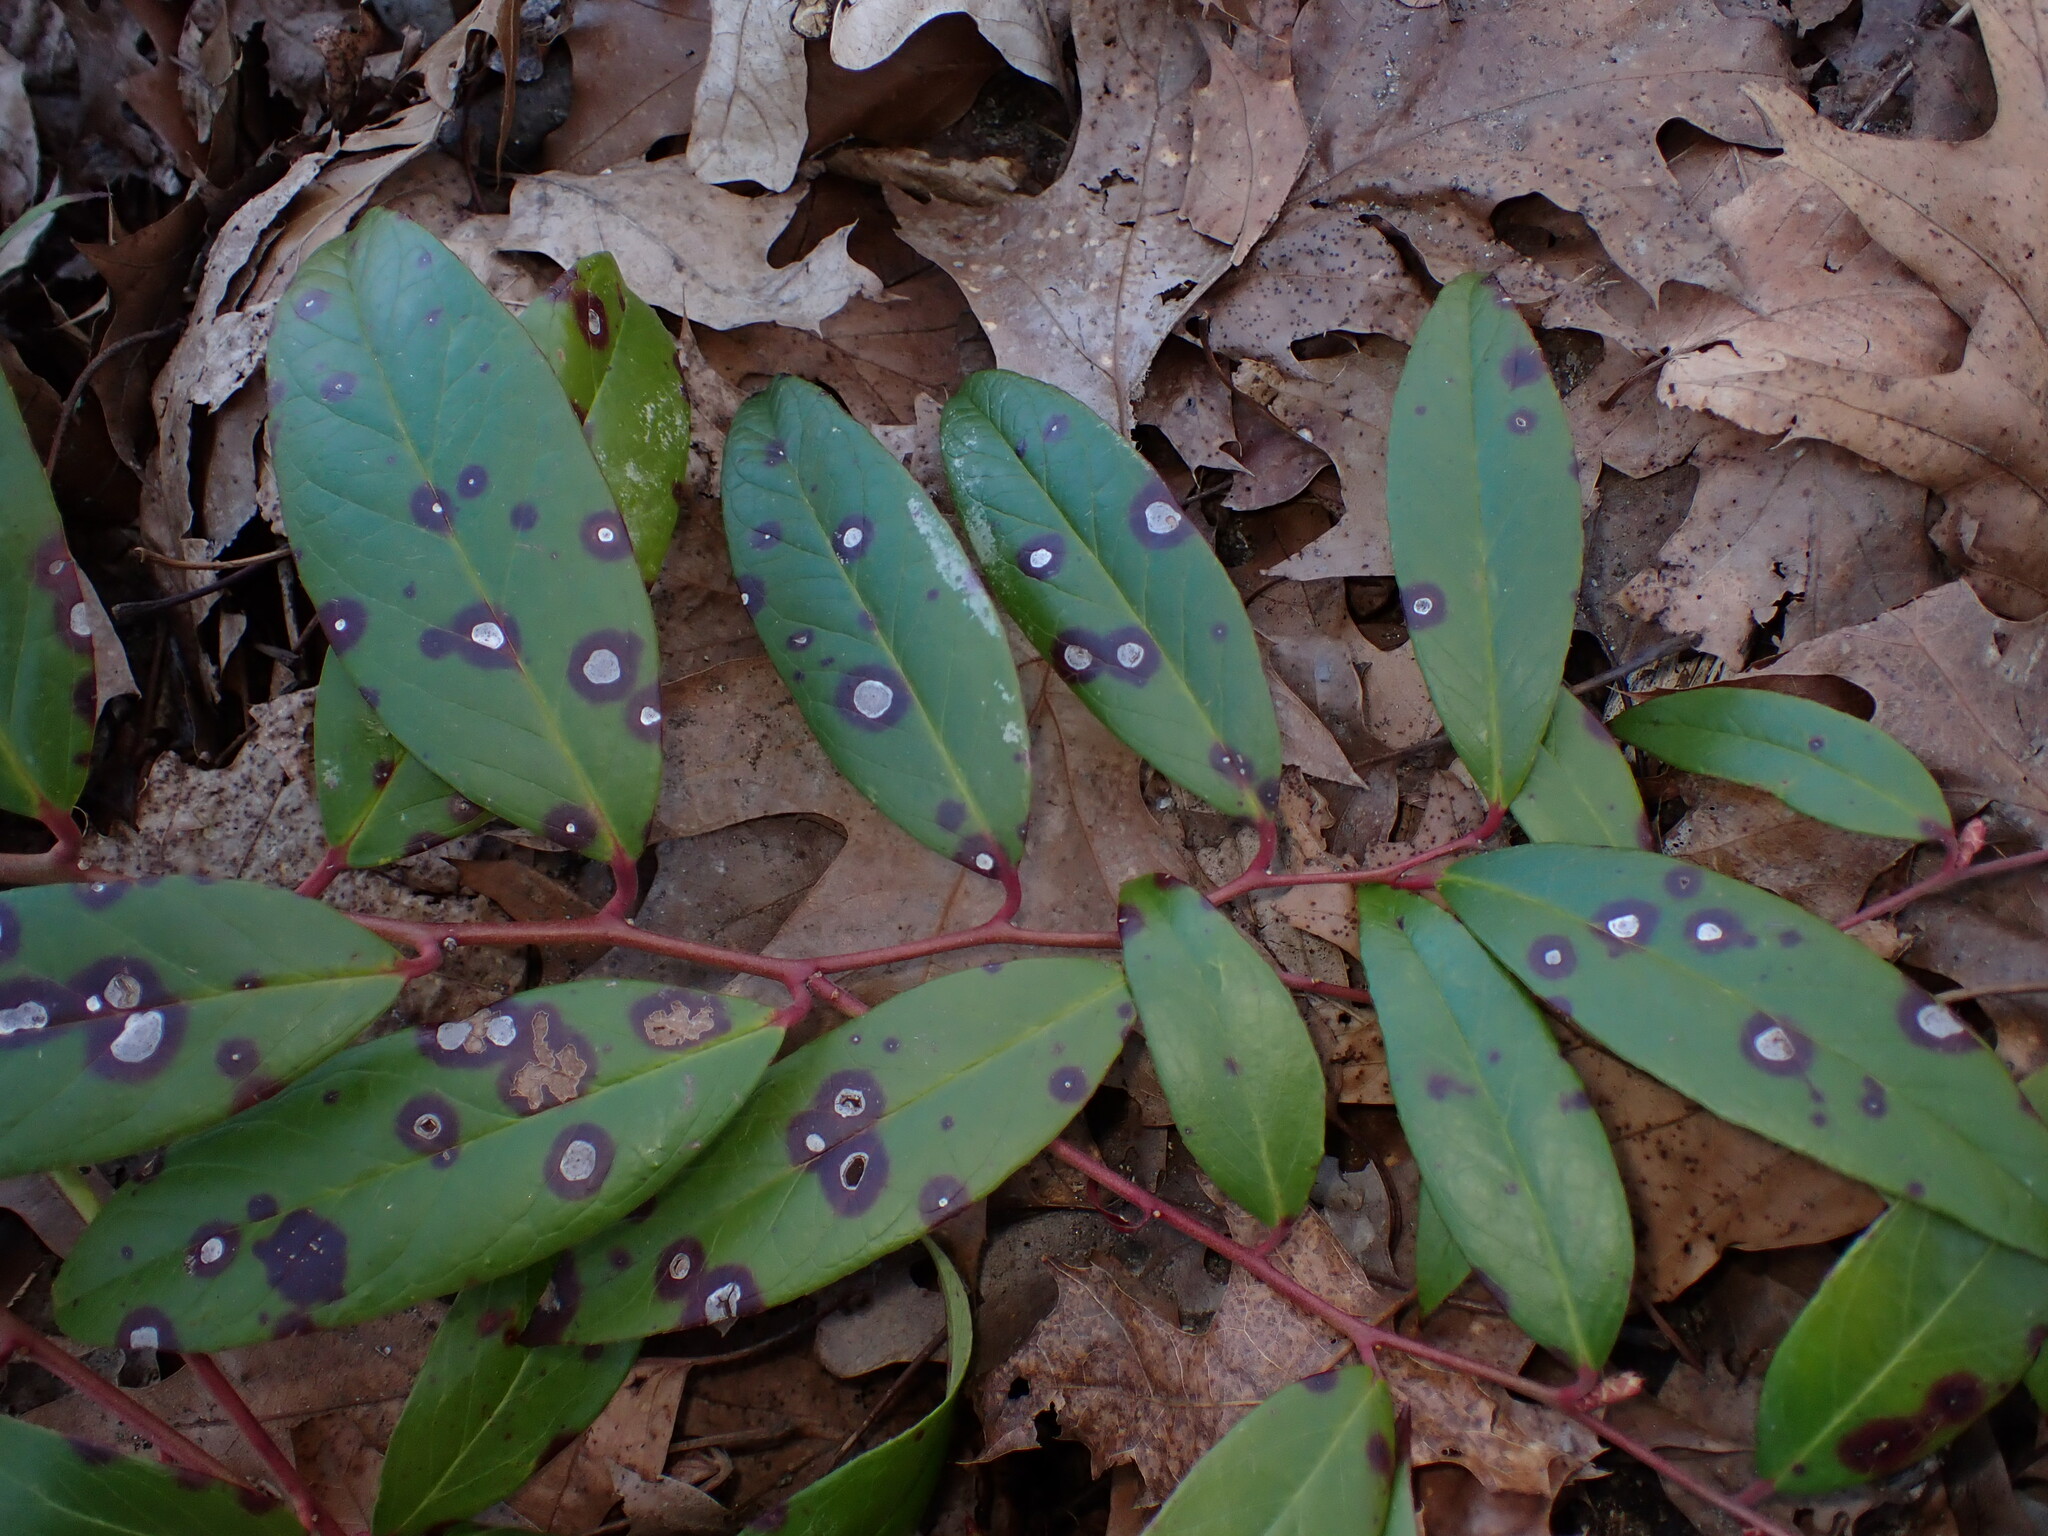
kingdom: Plantae
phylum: Tracheophyta
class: Magnoliopsida
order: Ericales
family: Ericaceae
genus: Leucothoe
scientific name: Leucothoe axillaris
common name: Leucothoe
